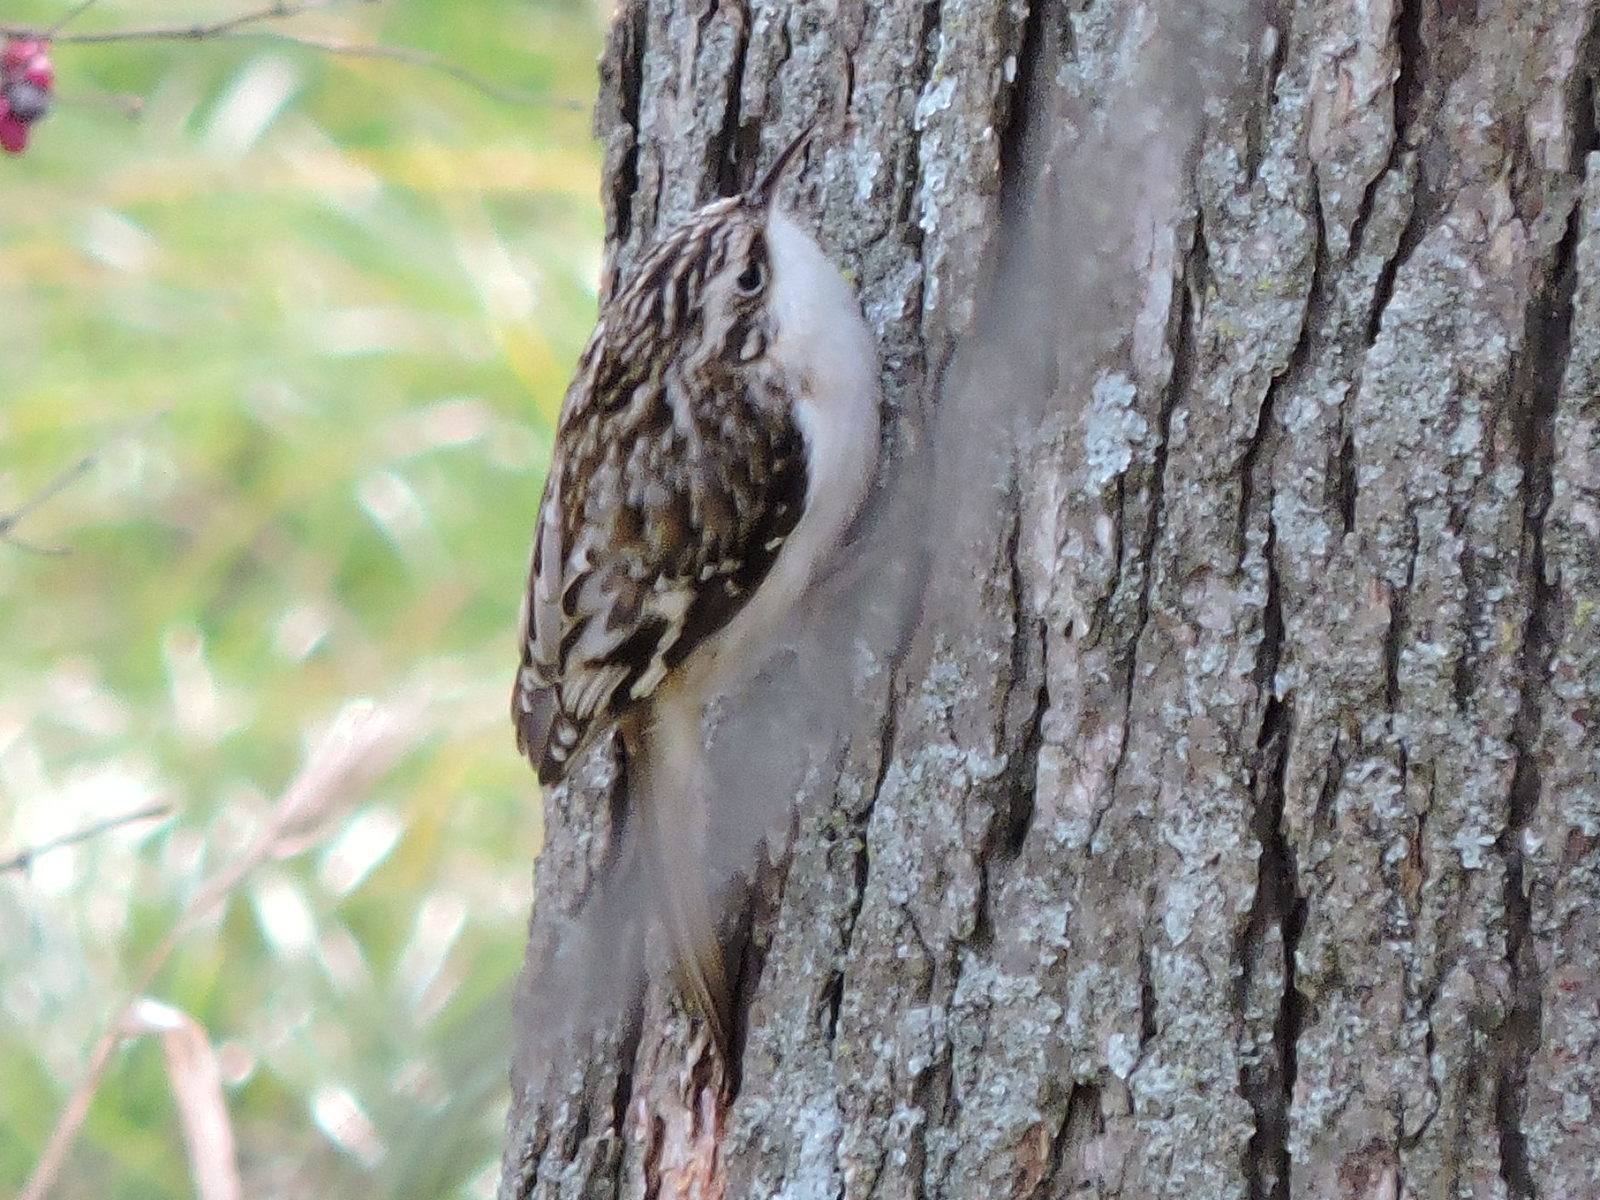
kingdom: Animalia
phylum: Chordata
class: Aves
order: Passeriformes
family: Certhiidae
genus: Certhia
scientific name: Certhia americana
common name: Brown creeper
